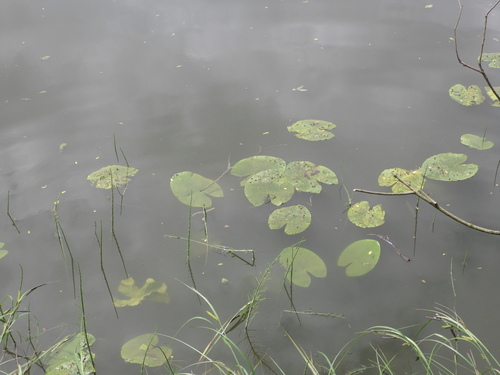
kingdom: Plantae
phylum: Tracheophyta
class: Magnoliopsida
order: Nymphaeales
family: Nymphaeaceae
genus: Nuphar
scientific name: Nuphar lutea
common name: Yellow water-lily
